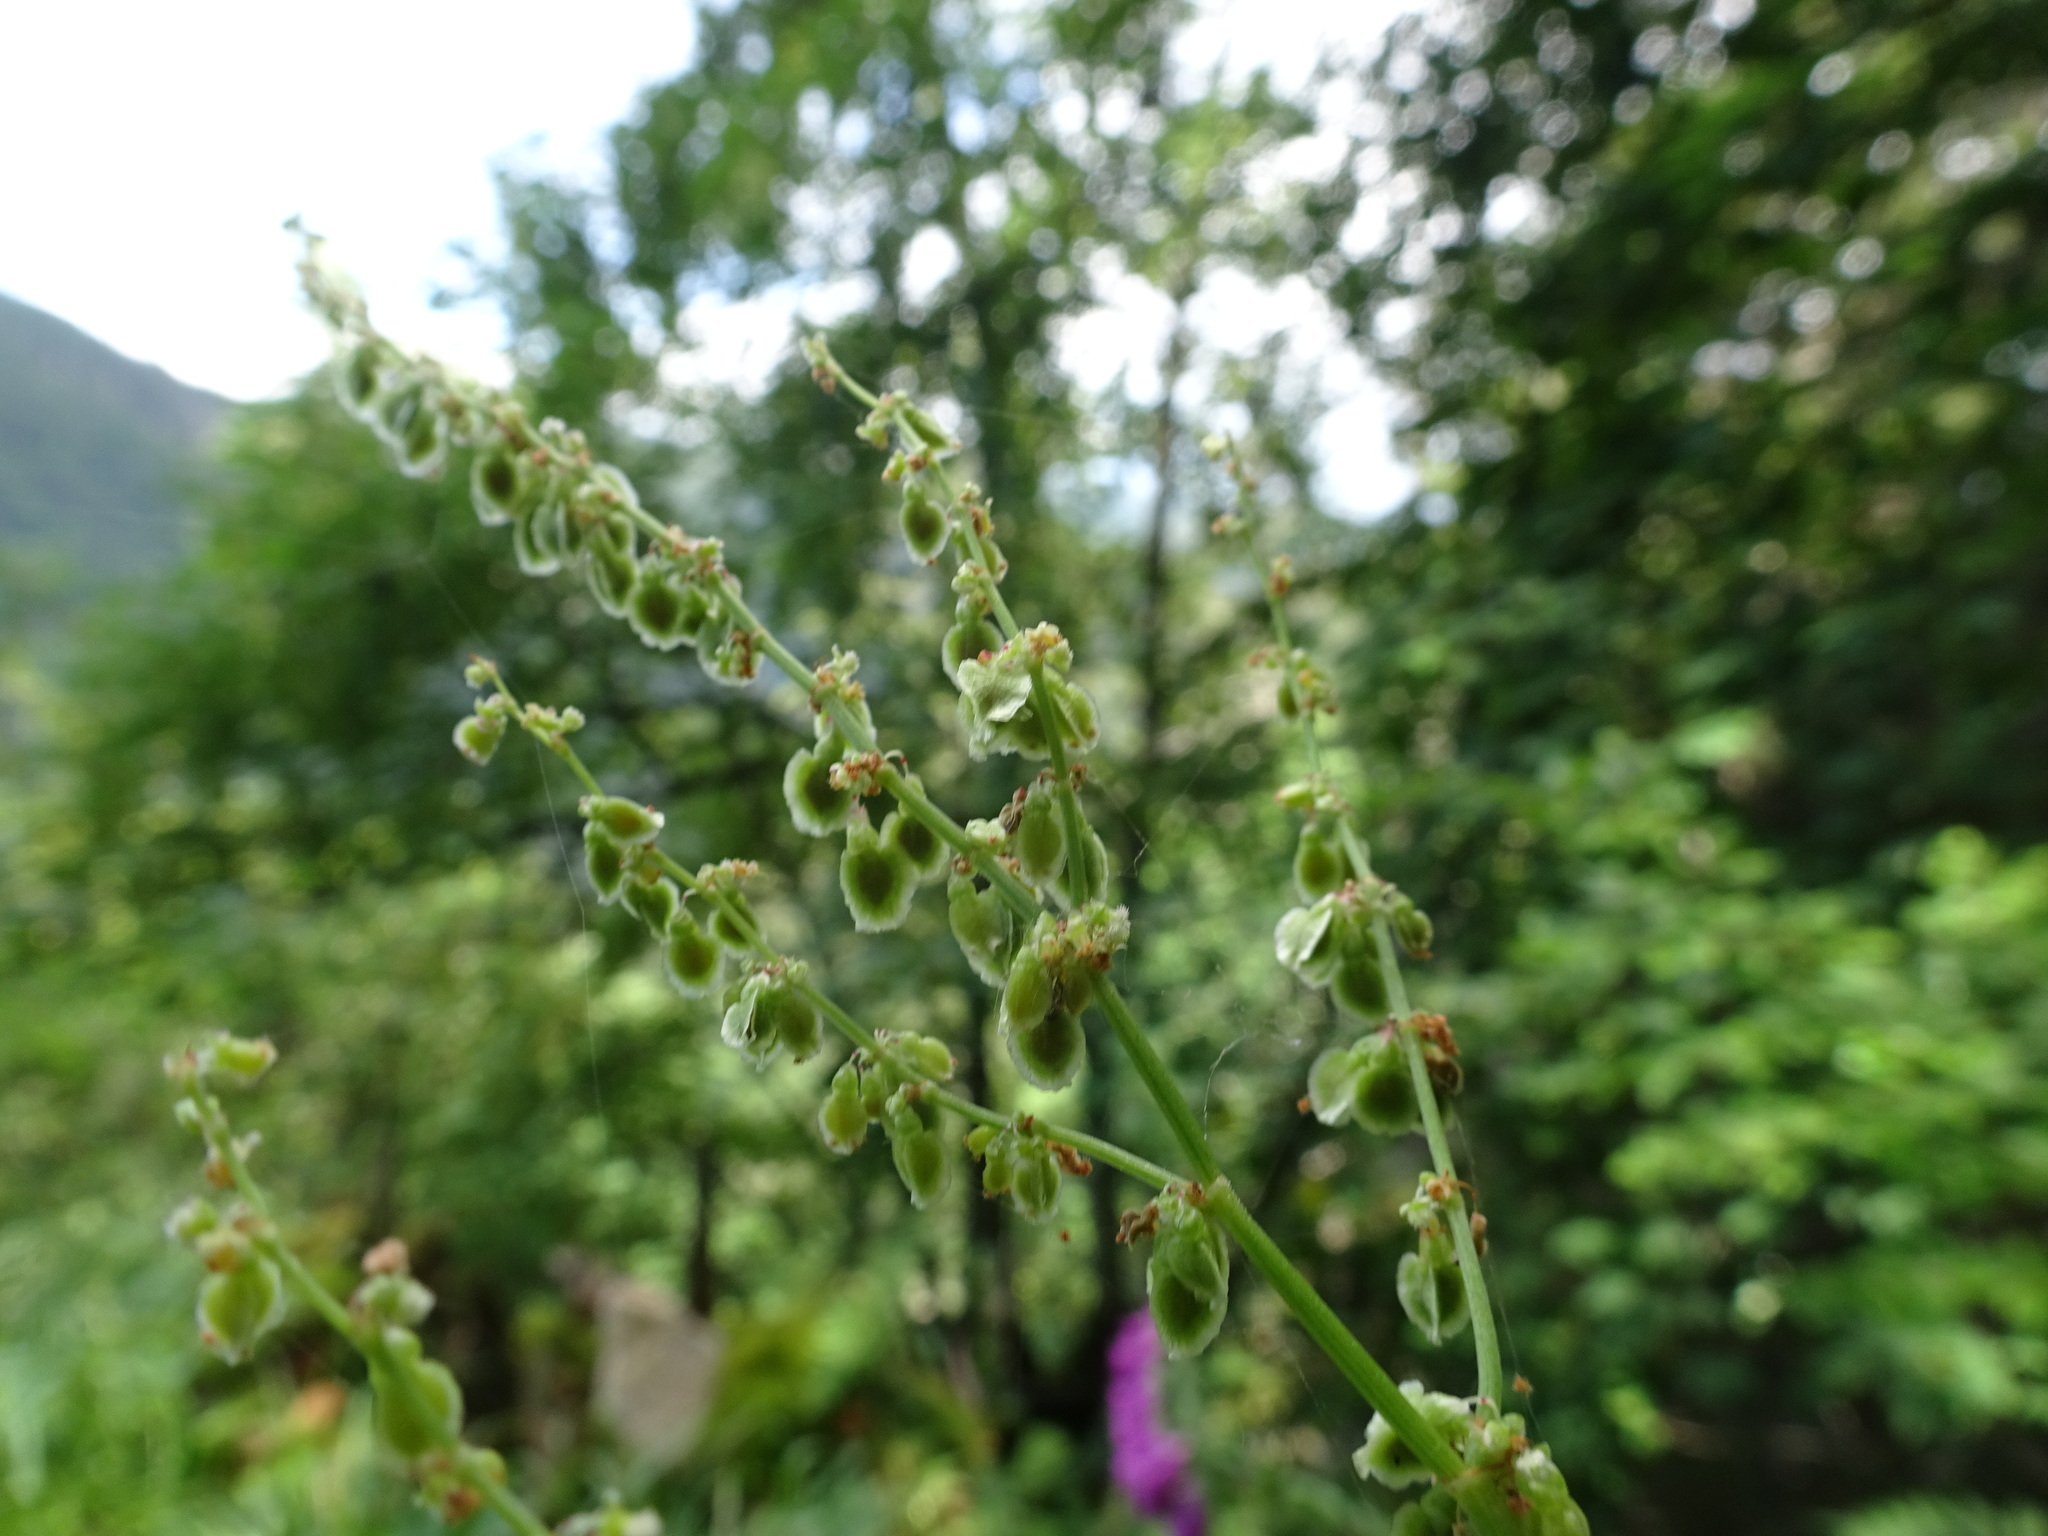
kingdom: Plantae
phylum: Tracheophyta
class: Magnoliopsida
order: Caryophyllales
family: Polygonaceae
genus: Rumex
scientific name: Rumex arifolius
